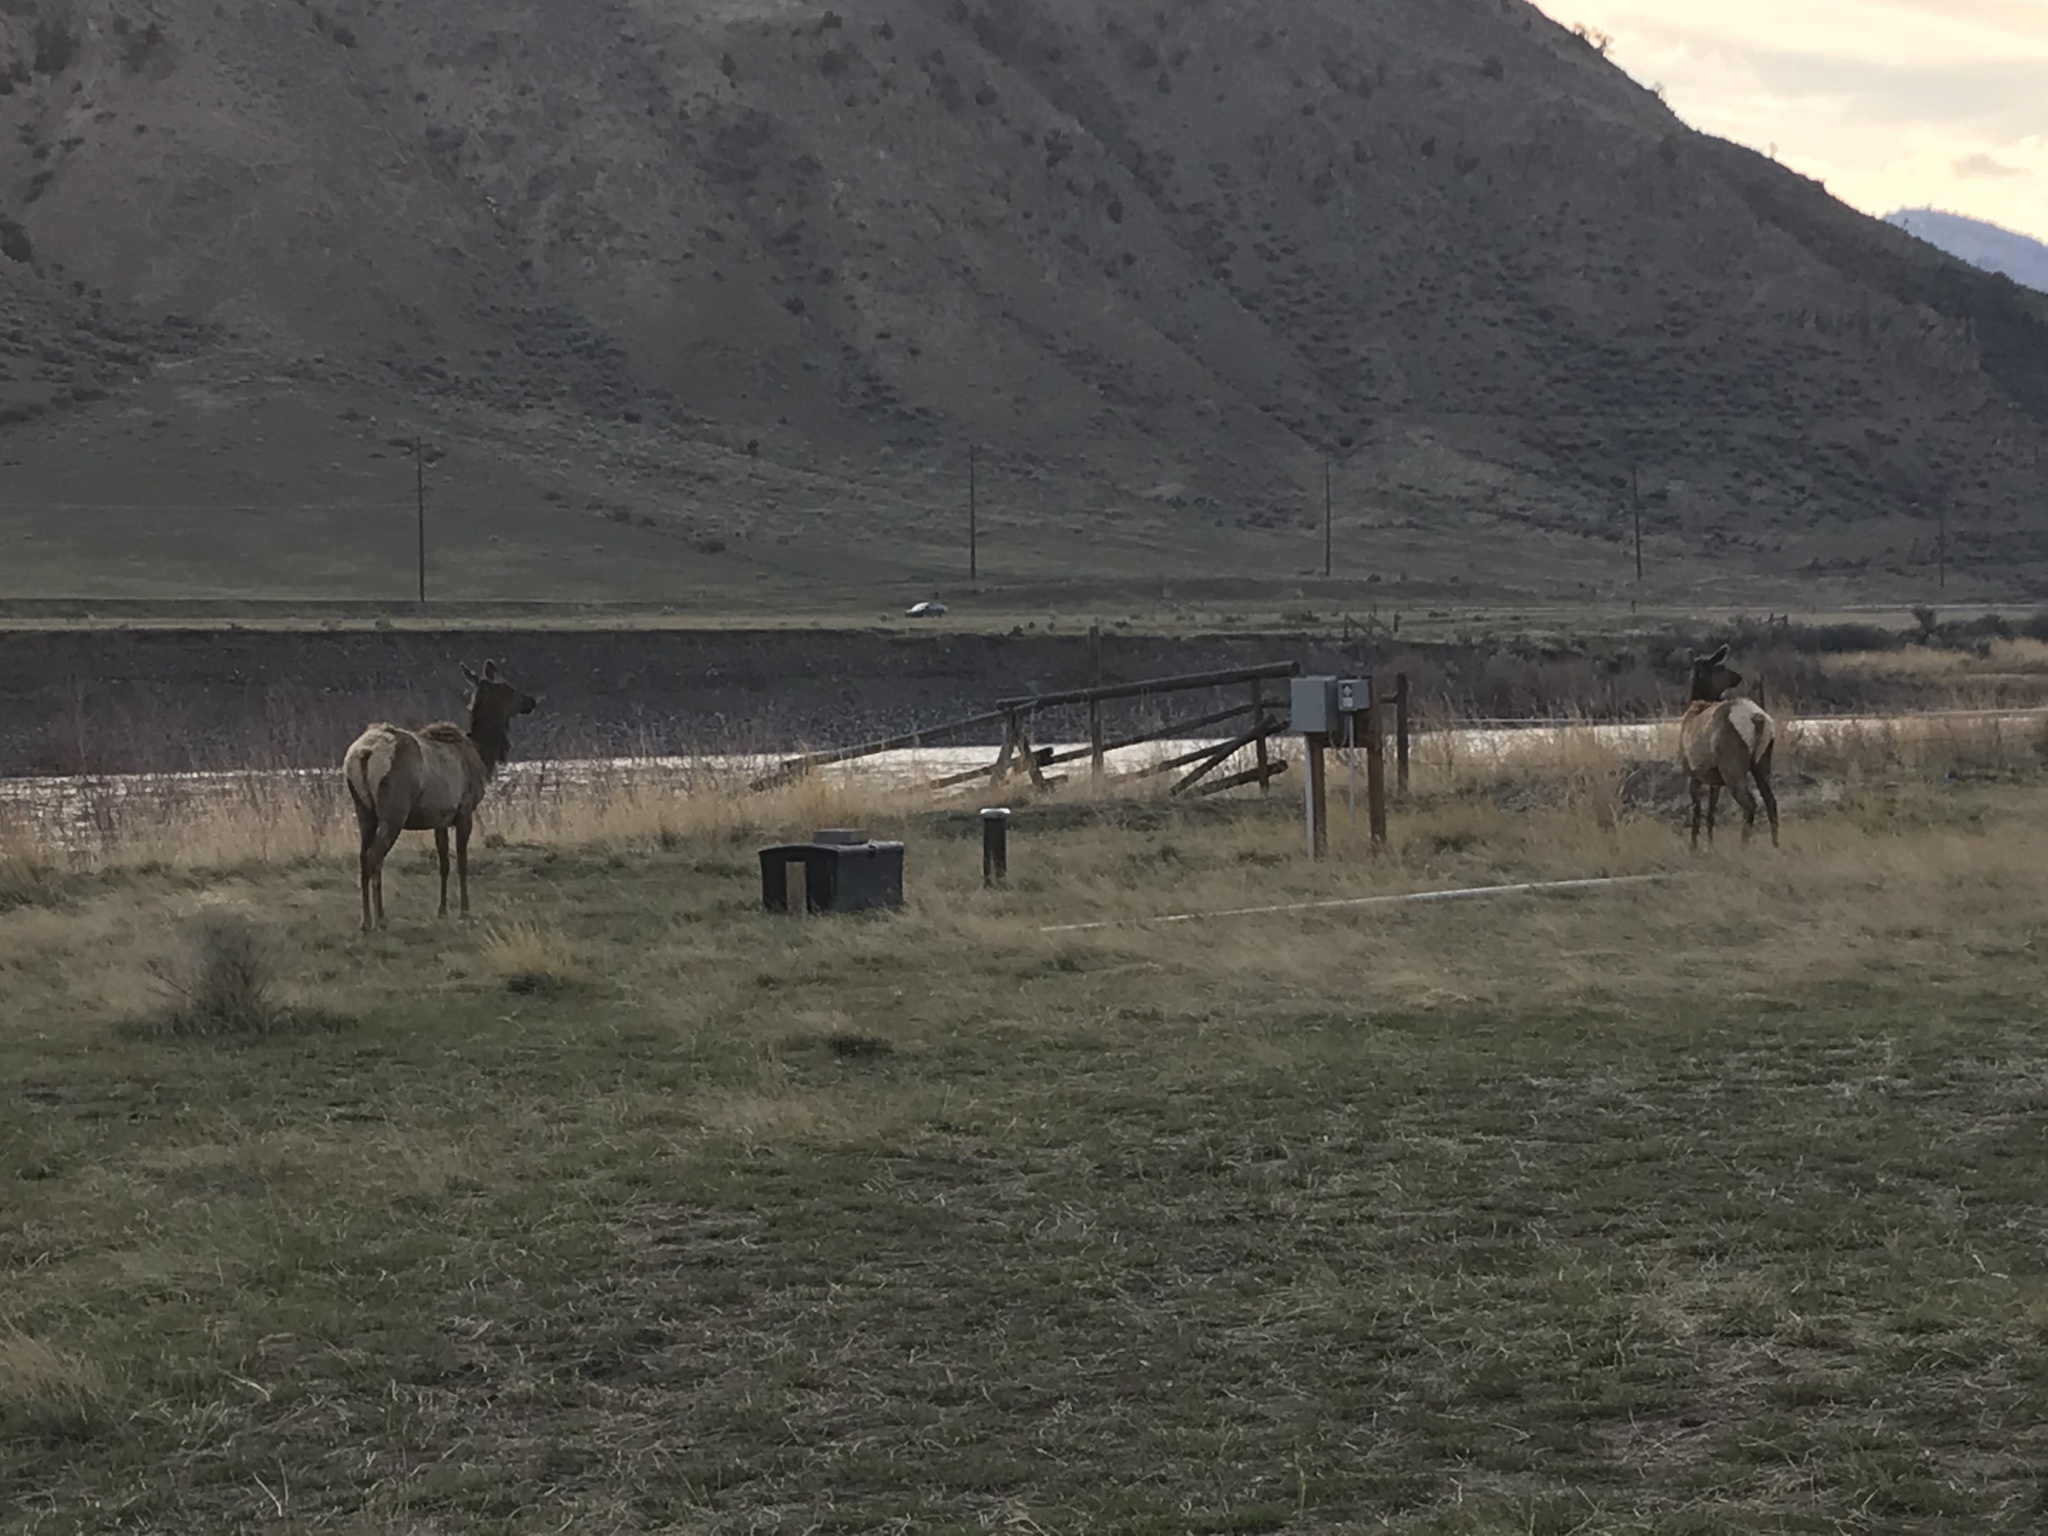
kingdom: Animalia
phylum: Chordata
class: Mammalia
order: Artiodactyla
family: Cervidae
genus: Cervus
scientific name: Cervus elaphus
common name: Red deer
